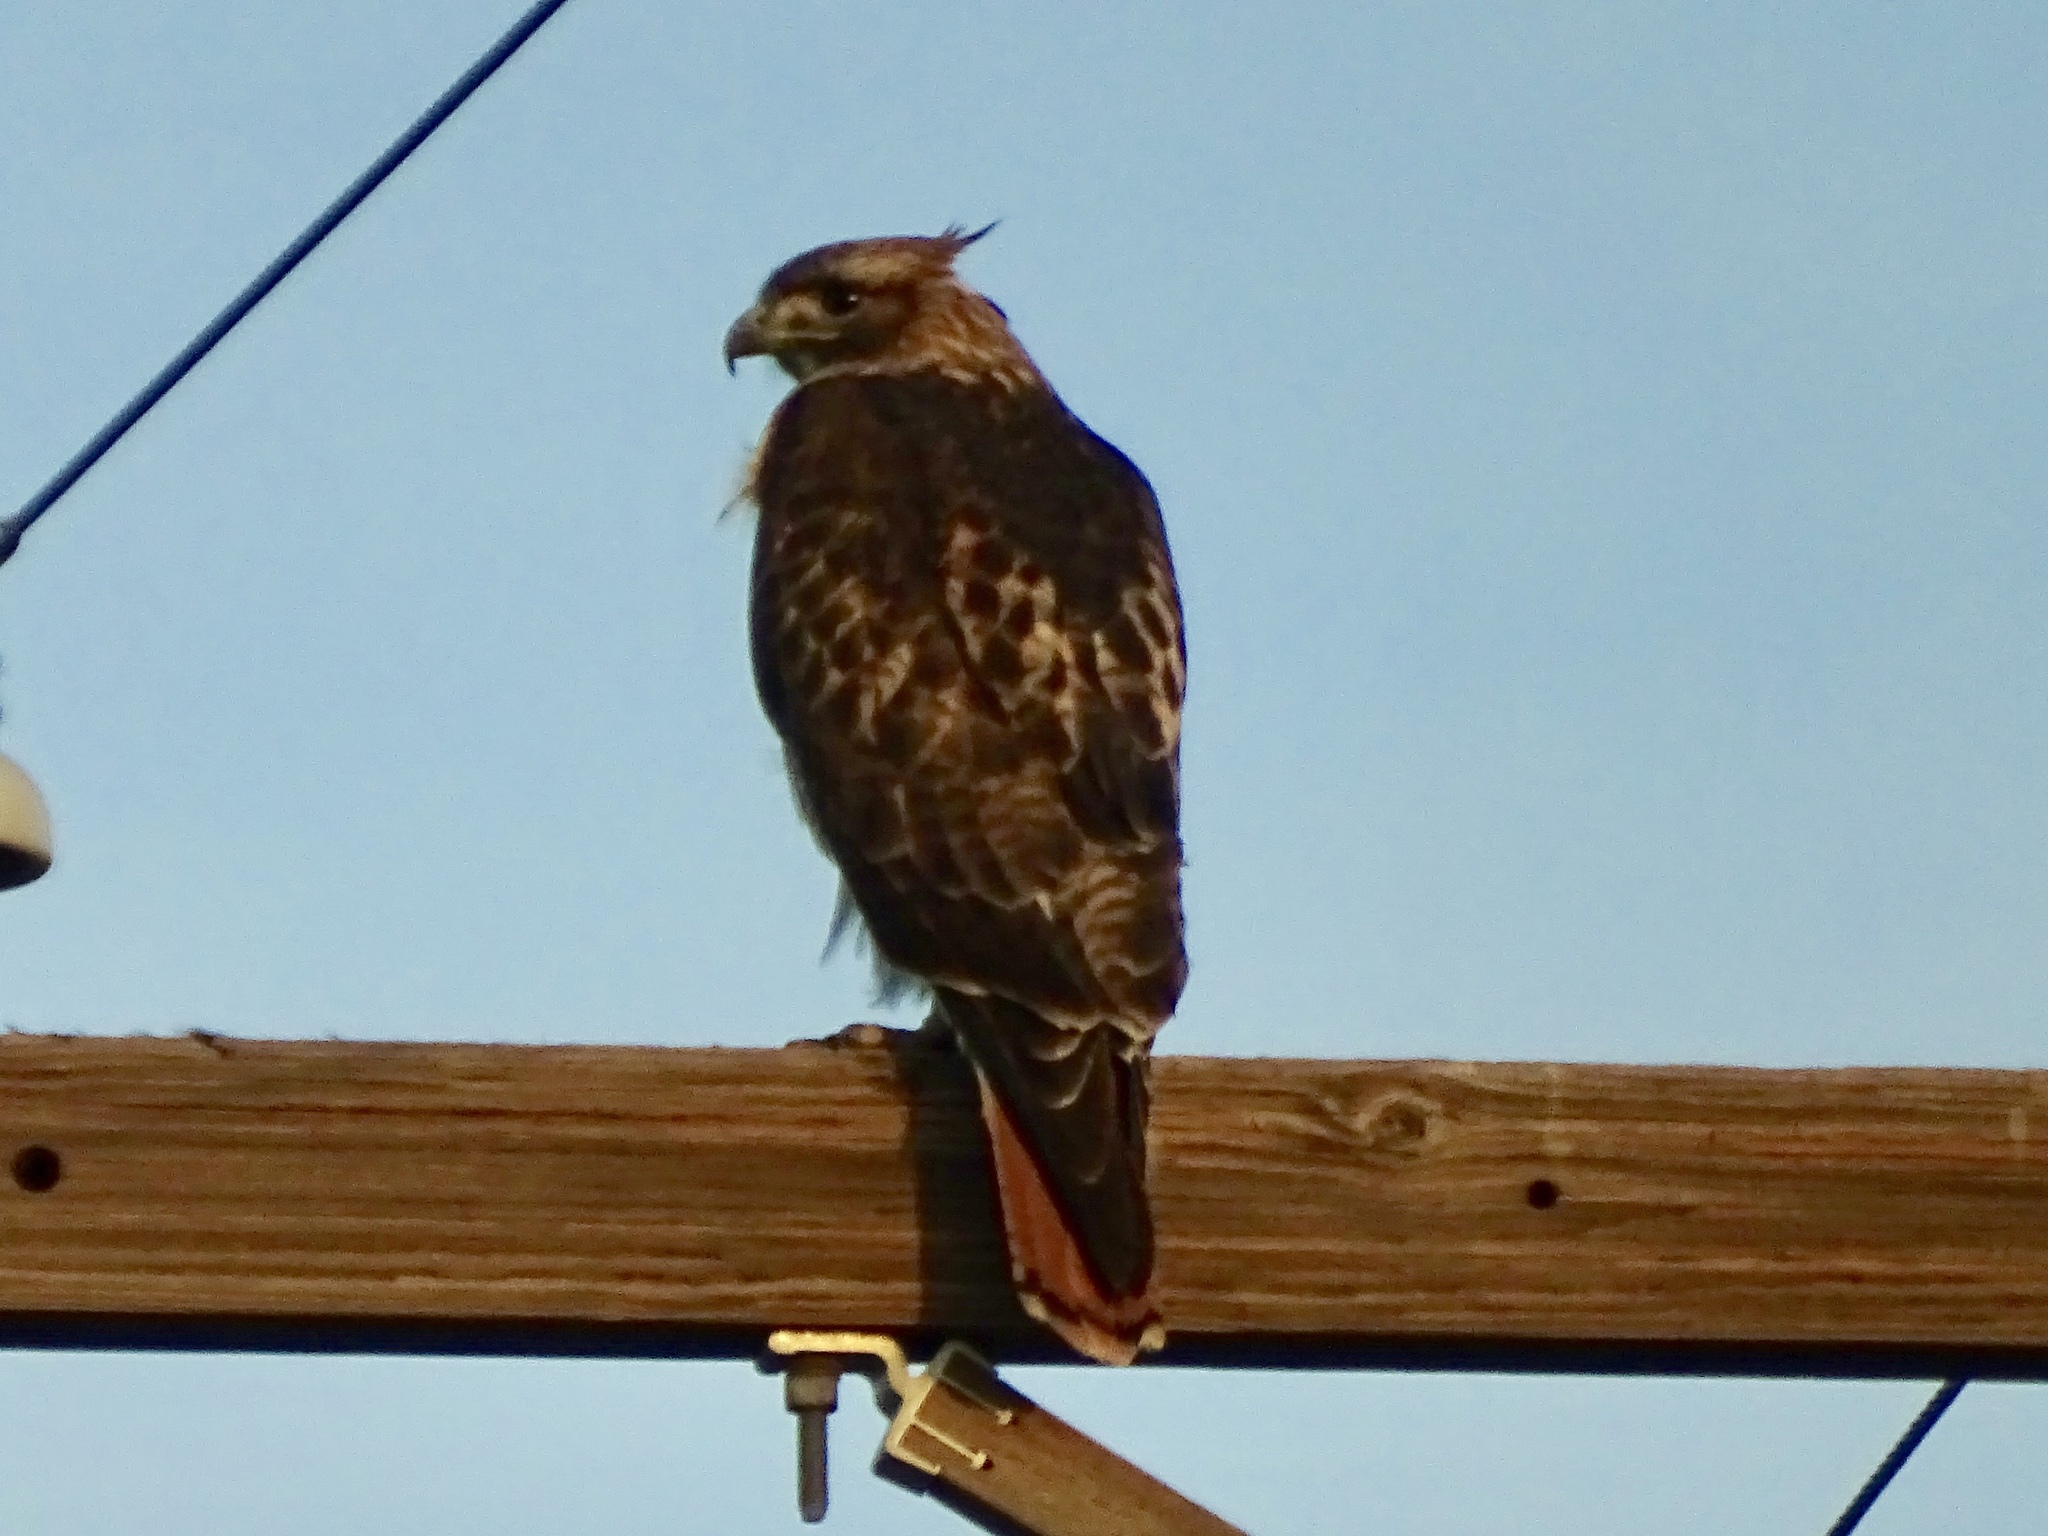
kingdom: Animalia
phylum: Chordata
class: Aves
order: Accipitriformes
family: Accipitridae
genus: Buteo
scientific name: Buteo jamaicensis
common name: Red-tailed hawk
